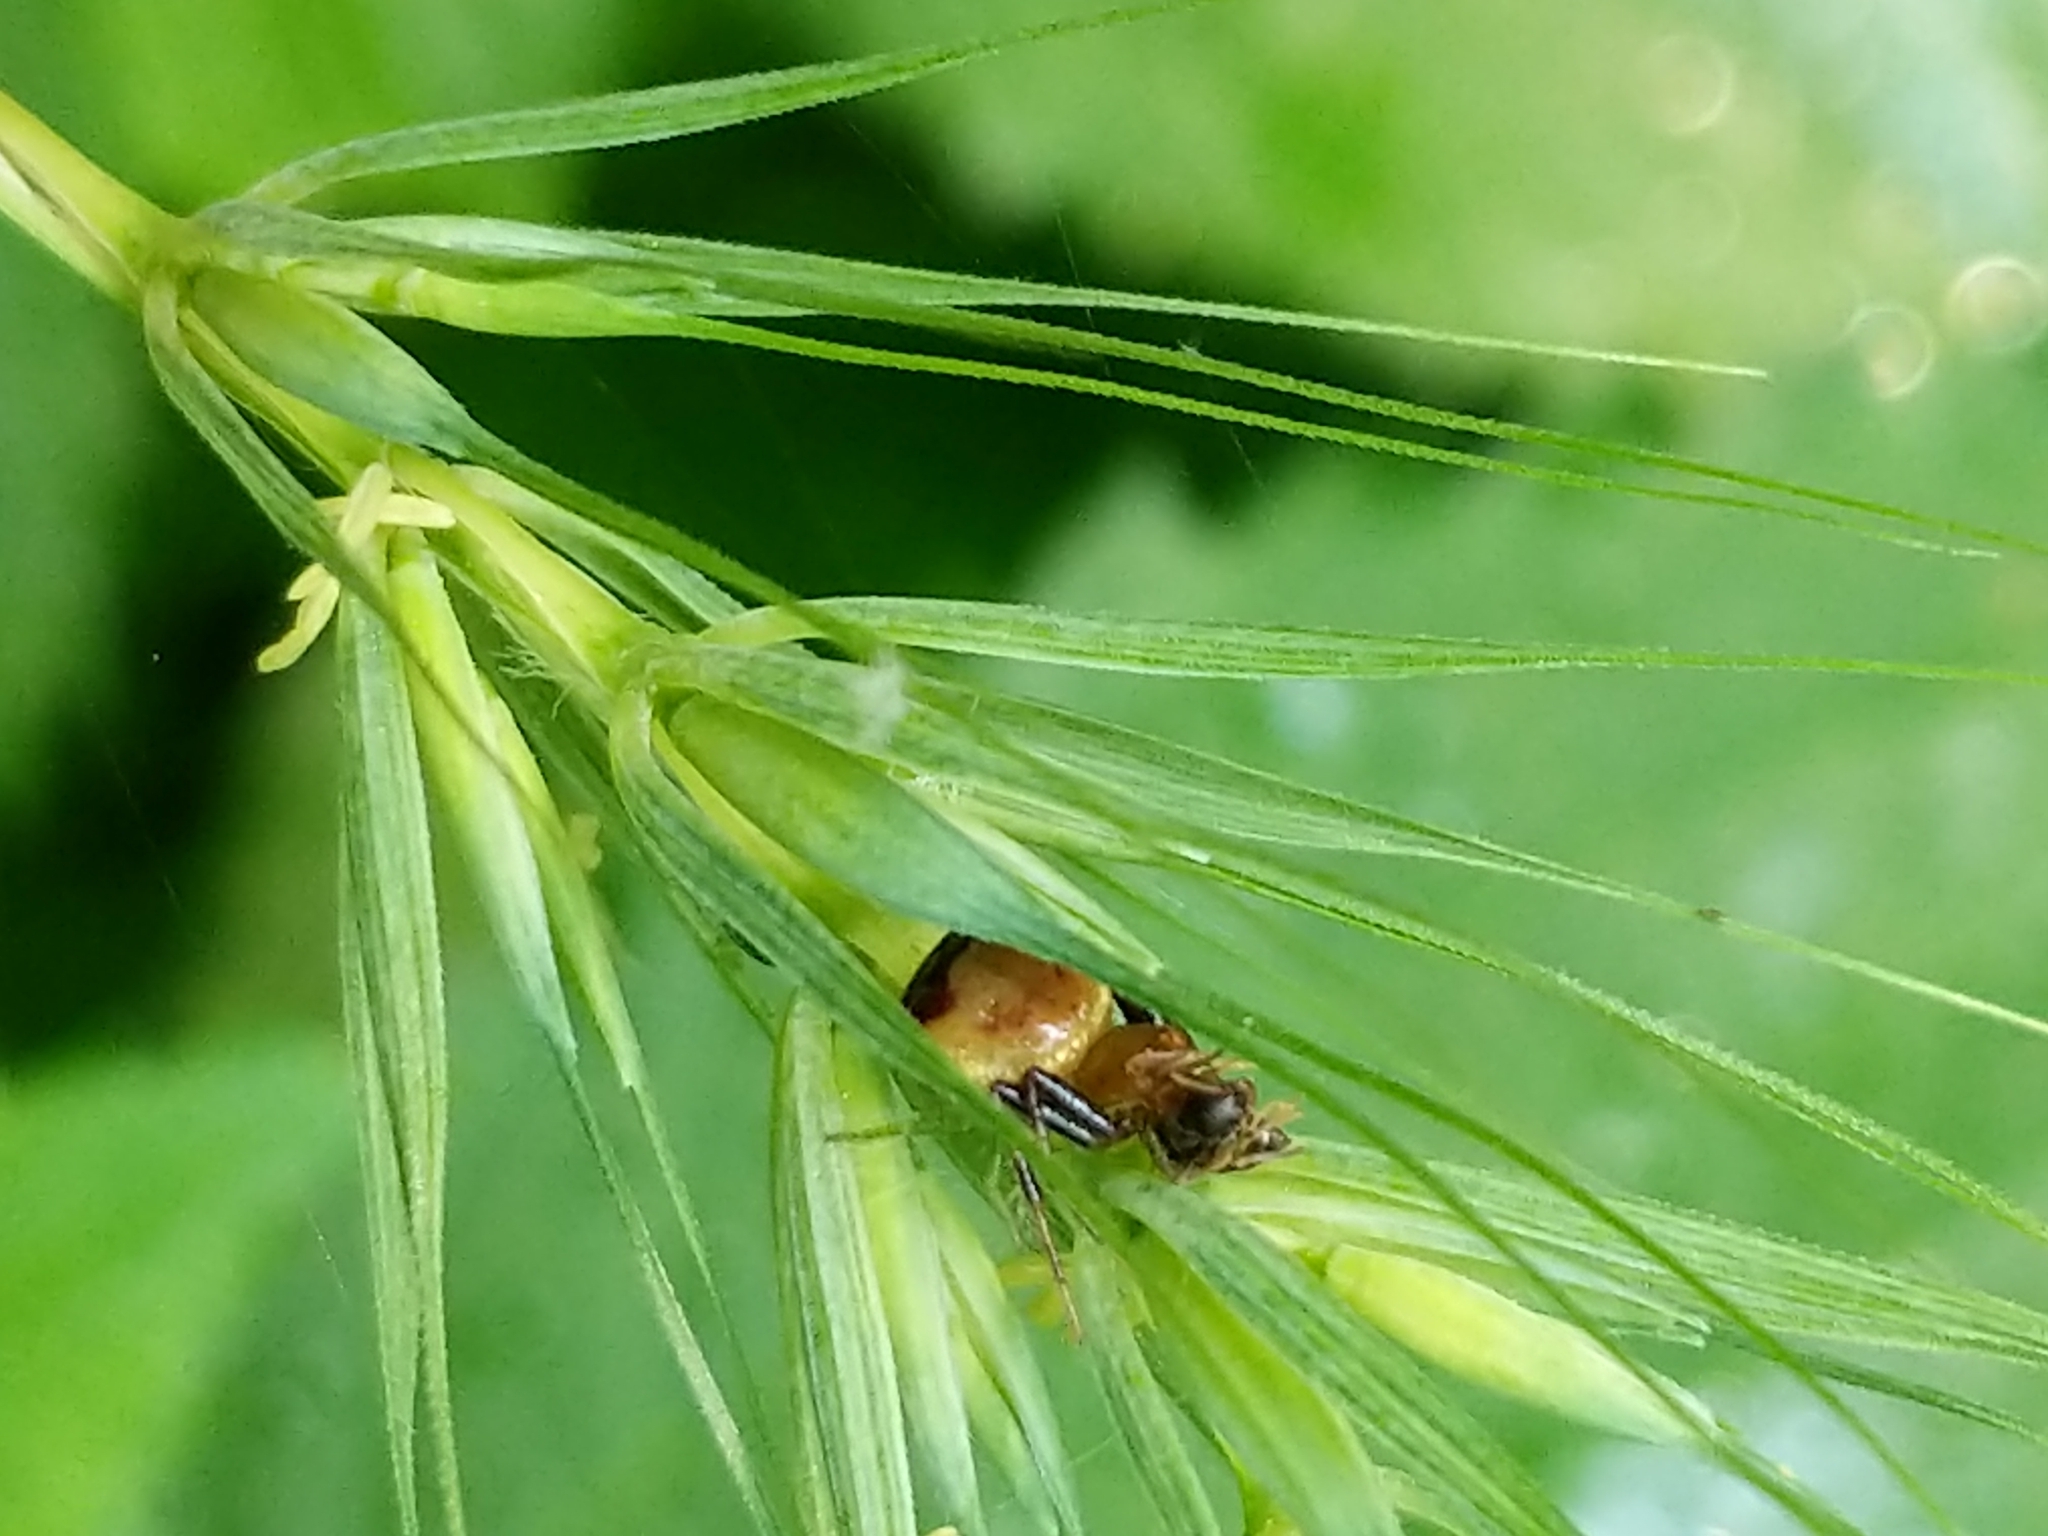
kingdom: Animalia
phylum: Arthropoda
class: Arachnida
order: Araneae
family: Thomisidae
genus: Synema
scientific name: Synema parvulum
